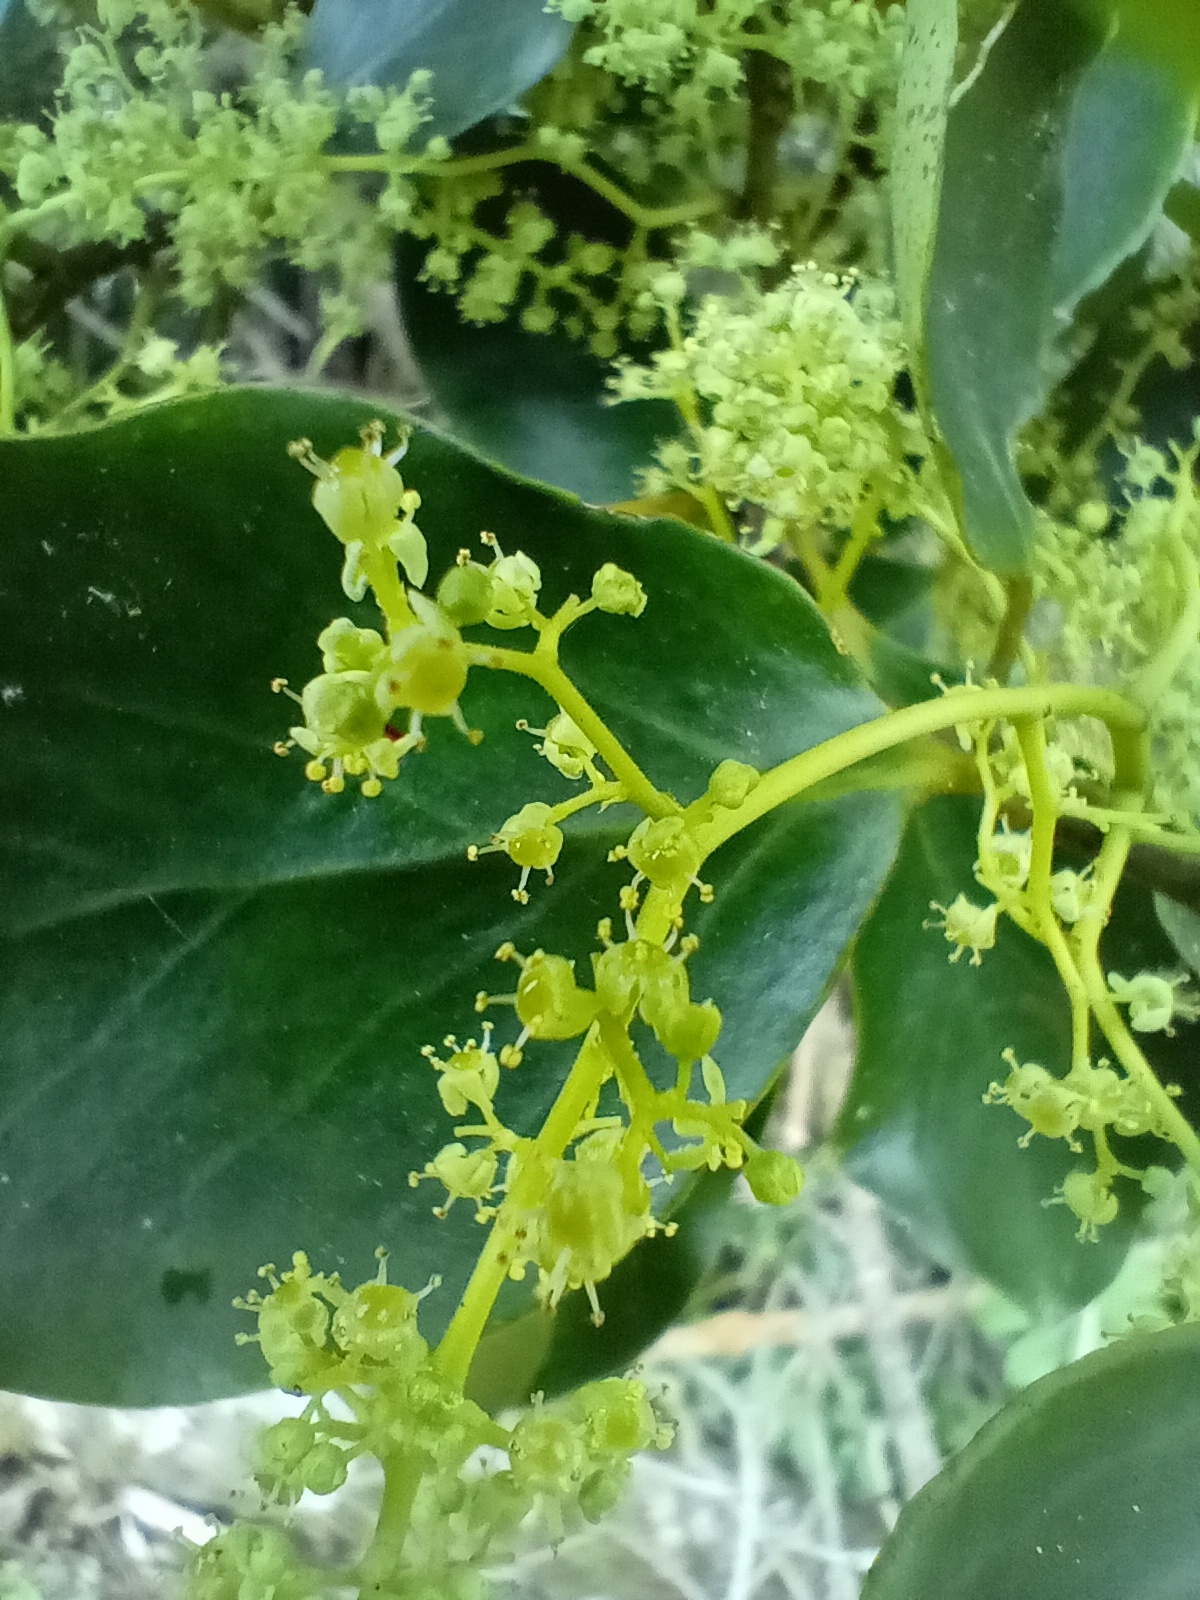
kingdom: Plantae
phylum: Tracheophyta
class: Magnoliopsida
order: Apiales
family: Griseliniaceae
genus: Griselinia
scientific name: Griselinia littoralis
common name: New zealand broadleaf
